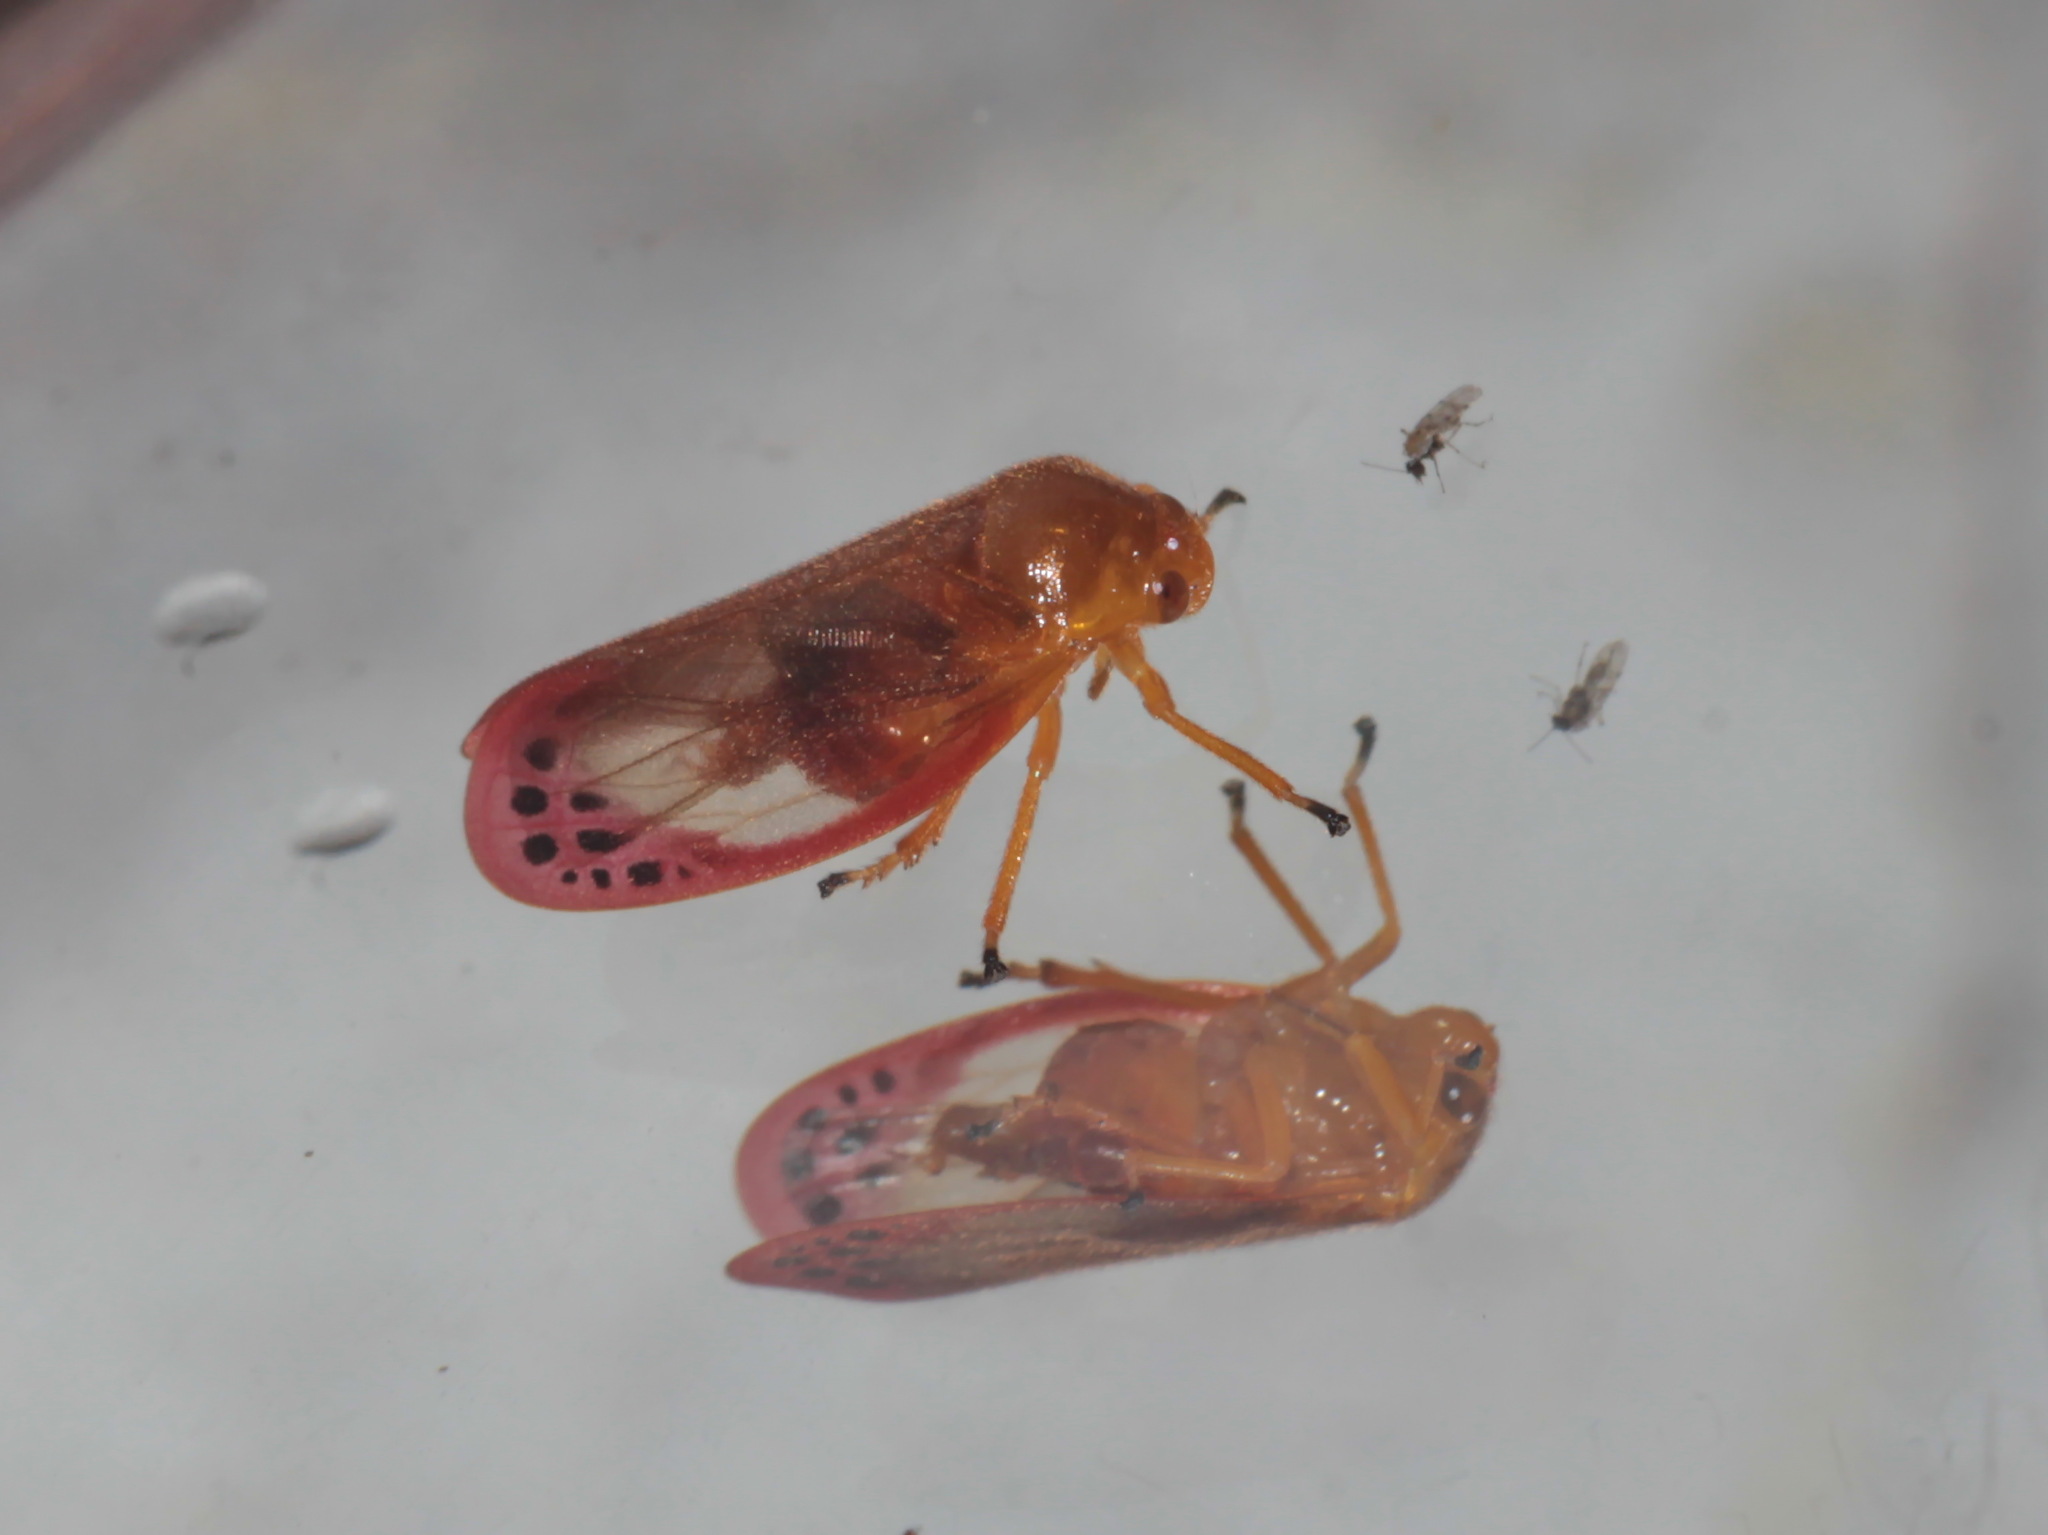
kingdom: Animalia
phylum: Arthropoda
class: Insecta
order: Hemiptera
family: Cercopidae
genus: Eoscarta
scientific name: Eoscarta liternoides
